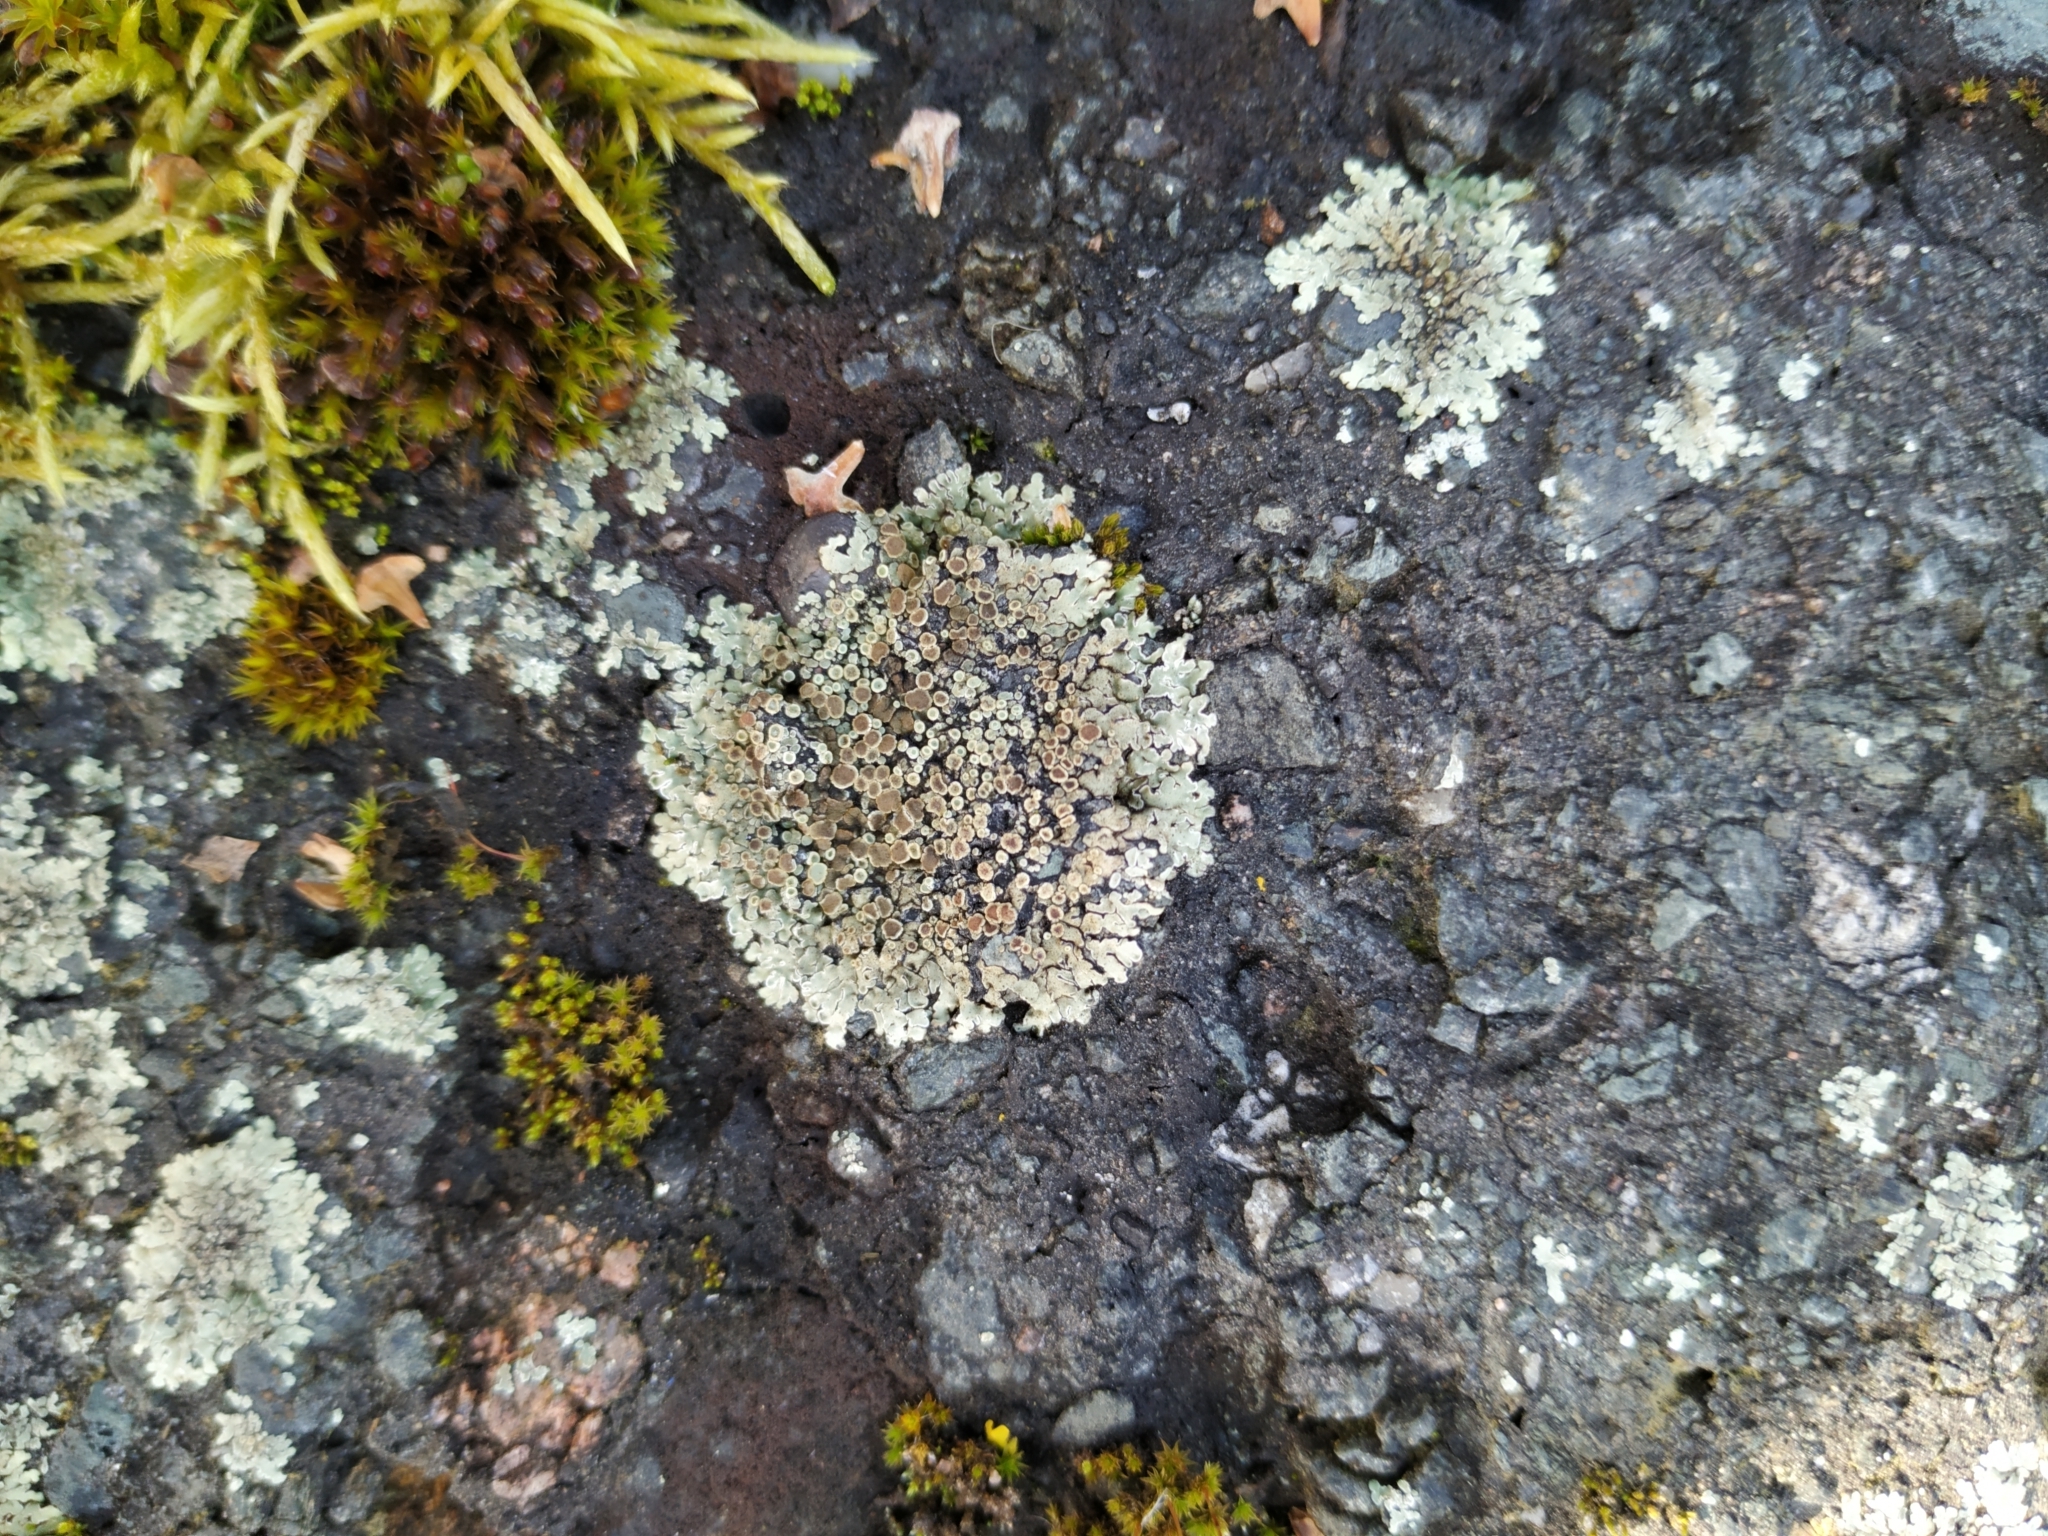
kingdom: Fungi
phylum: Ascomycota
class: Lecanoromycetes
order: Lecanorales
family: Lecanoraceae
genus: Protoparmeliopsis
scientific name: Protoparmeliopsis muralis
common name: Stonewall rim lichen
